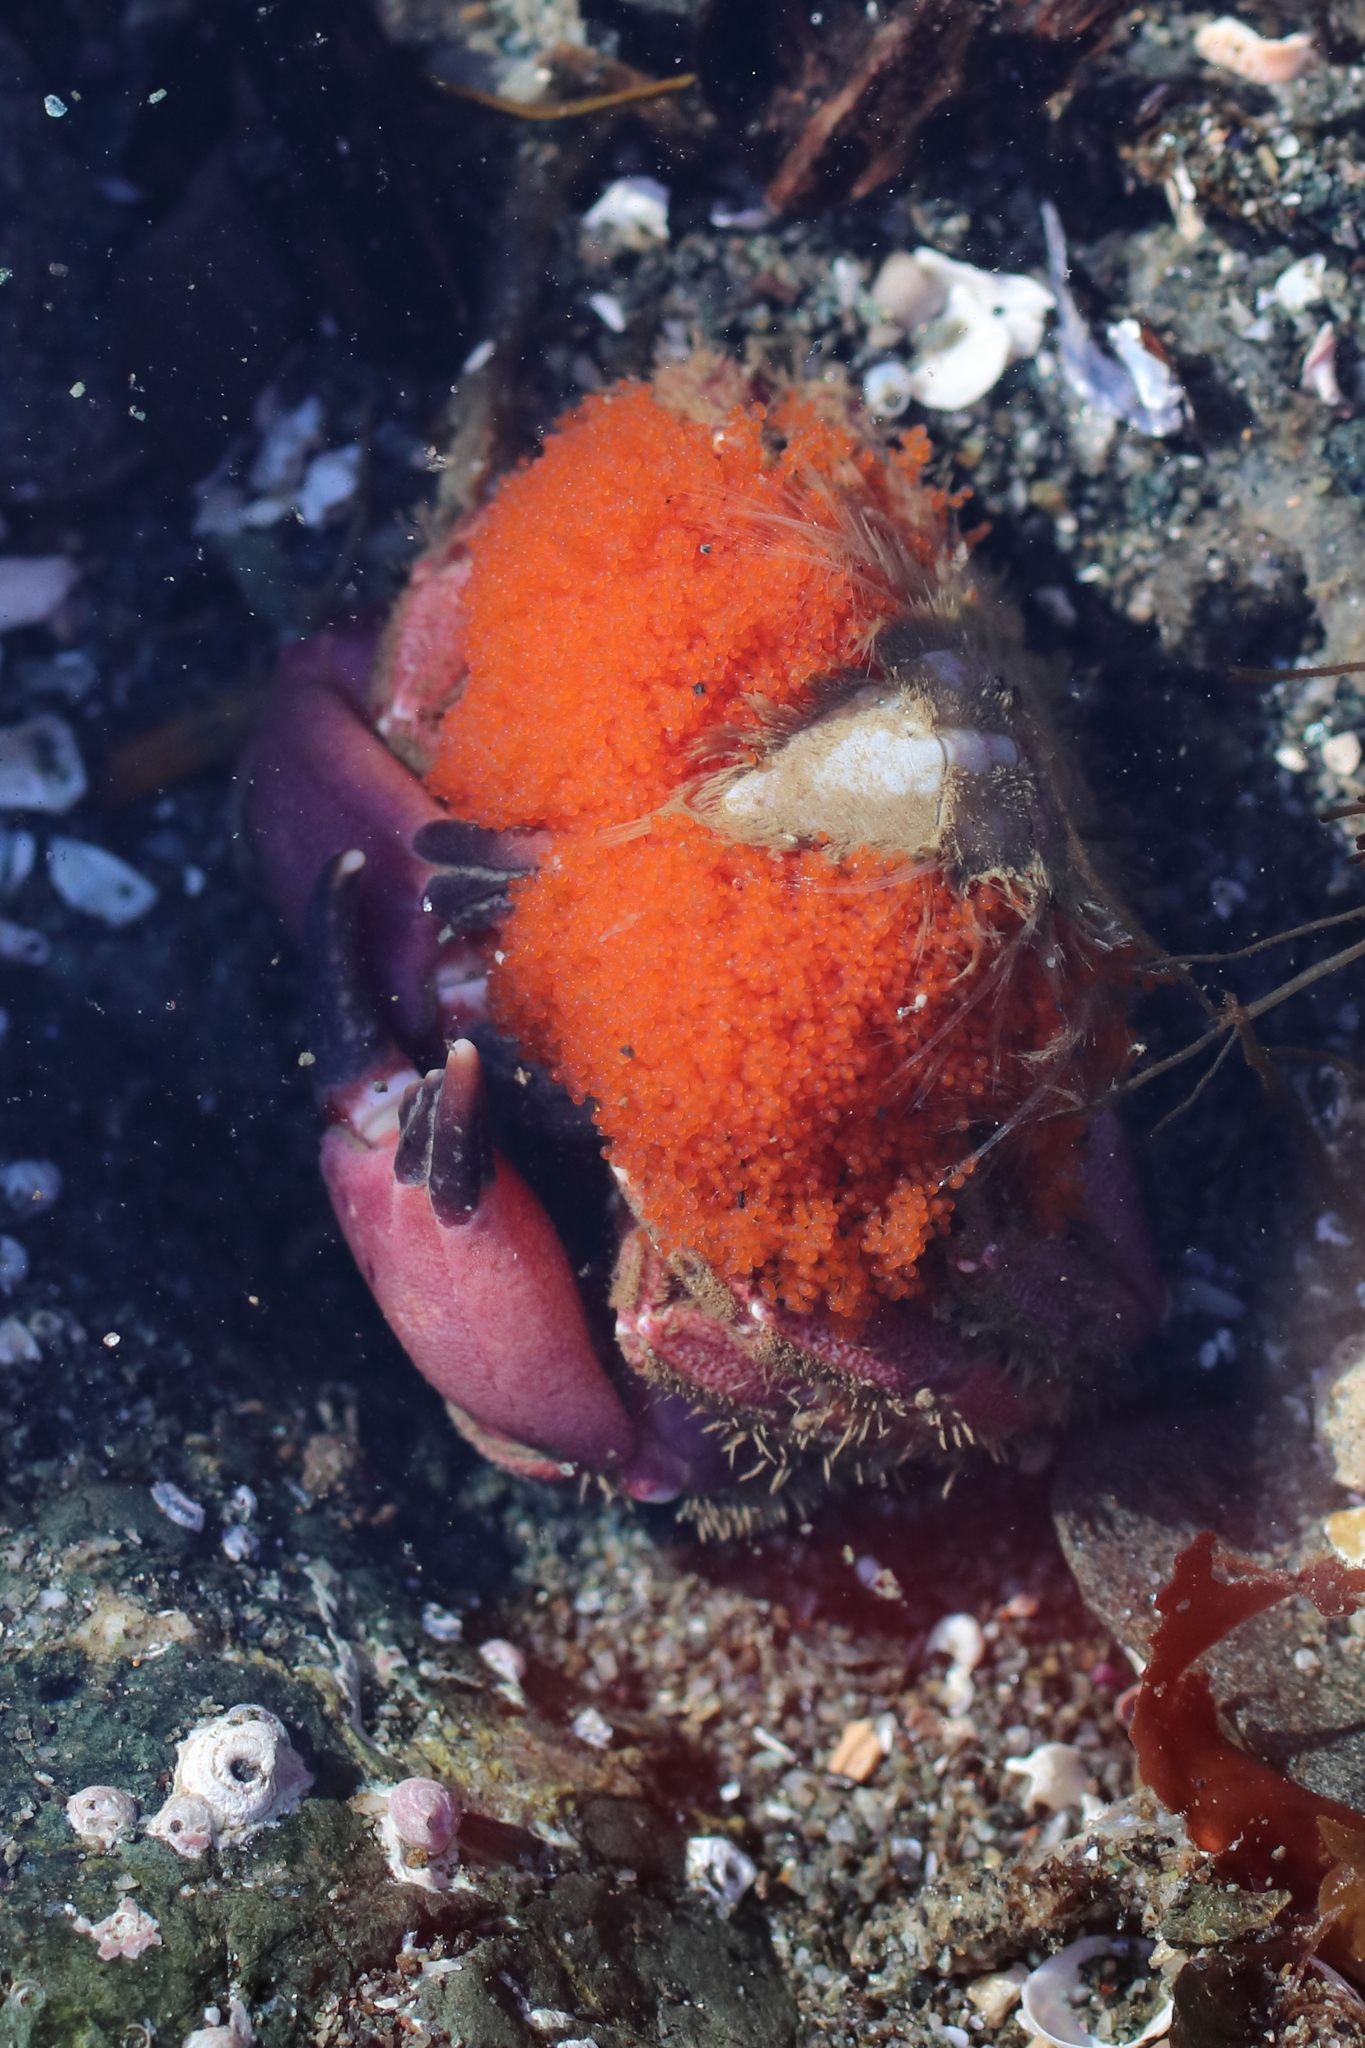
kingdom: Animalia
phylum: Arthropoda
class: Malacostraca
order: Decapoda
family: Cancridae
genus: Glebocarcinus
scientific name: Glebocarcinus oregonensis
